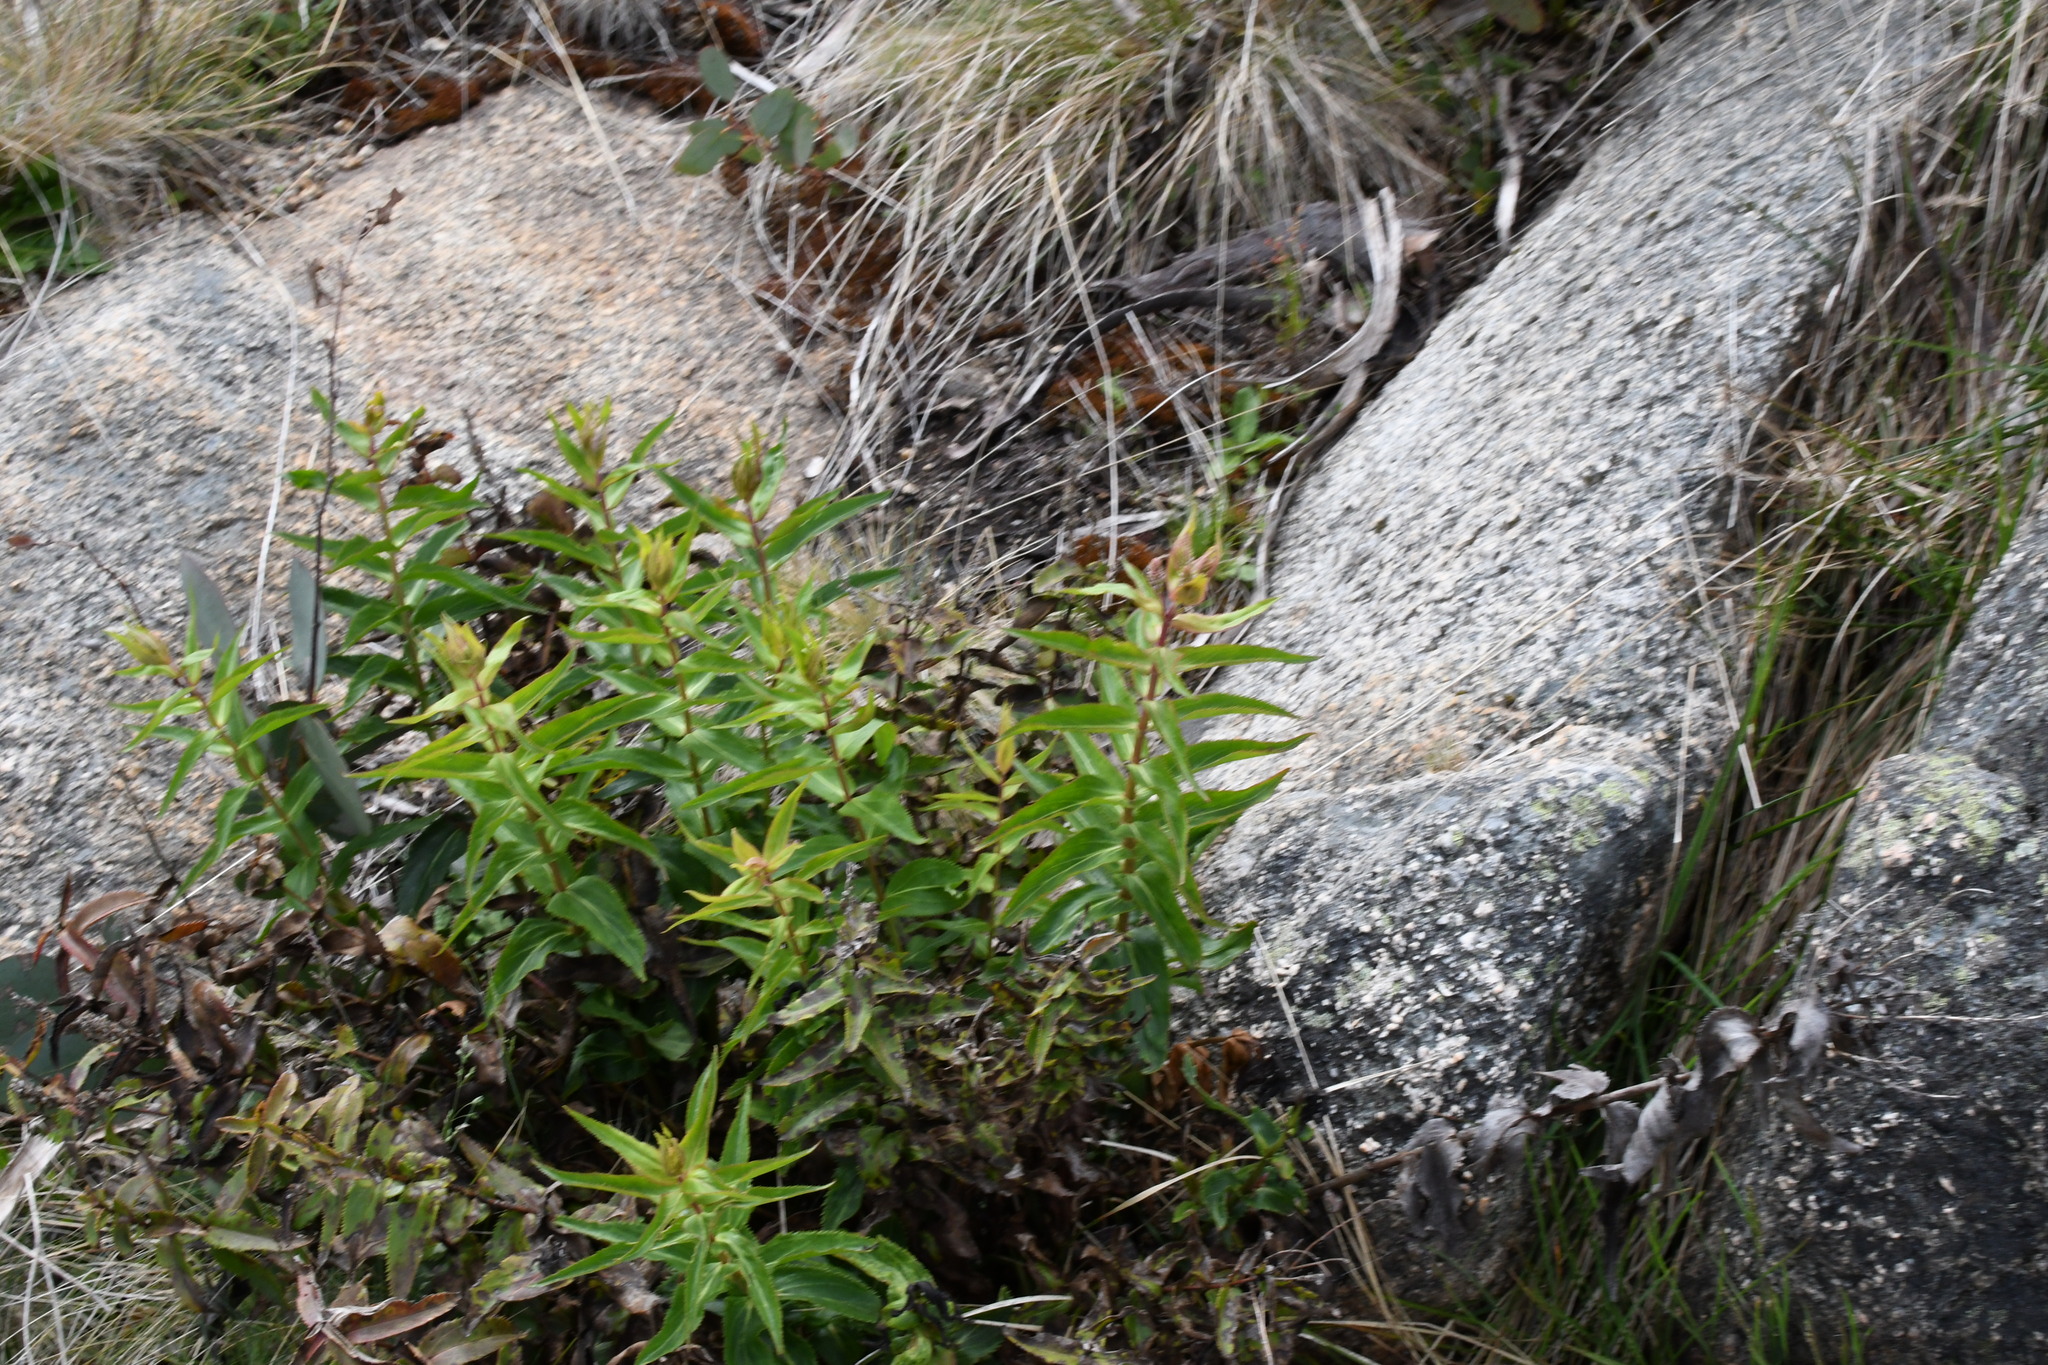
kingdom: Plantae
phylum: Tracheophyta
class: Magnoliopsida
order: Lamiales
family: Plantaginaceae
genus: Veronica
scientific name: Veronica derwentiana
